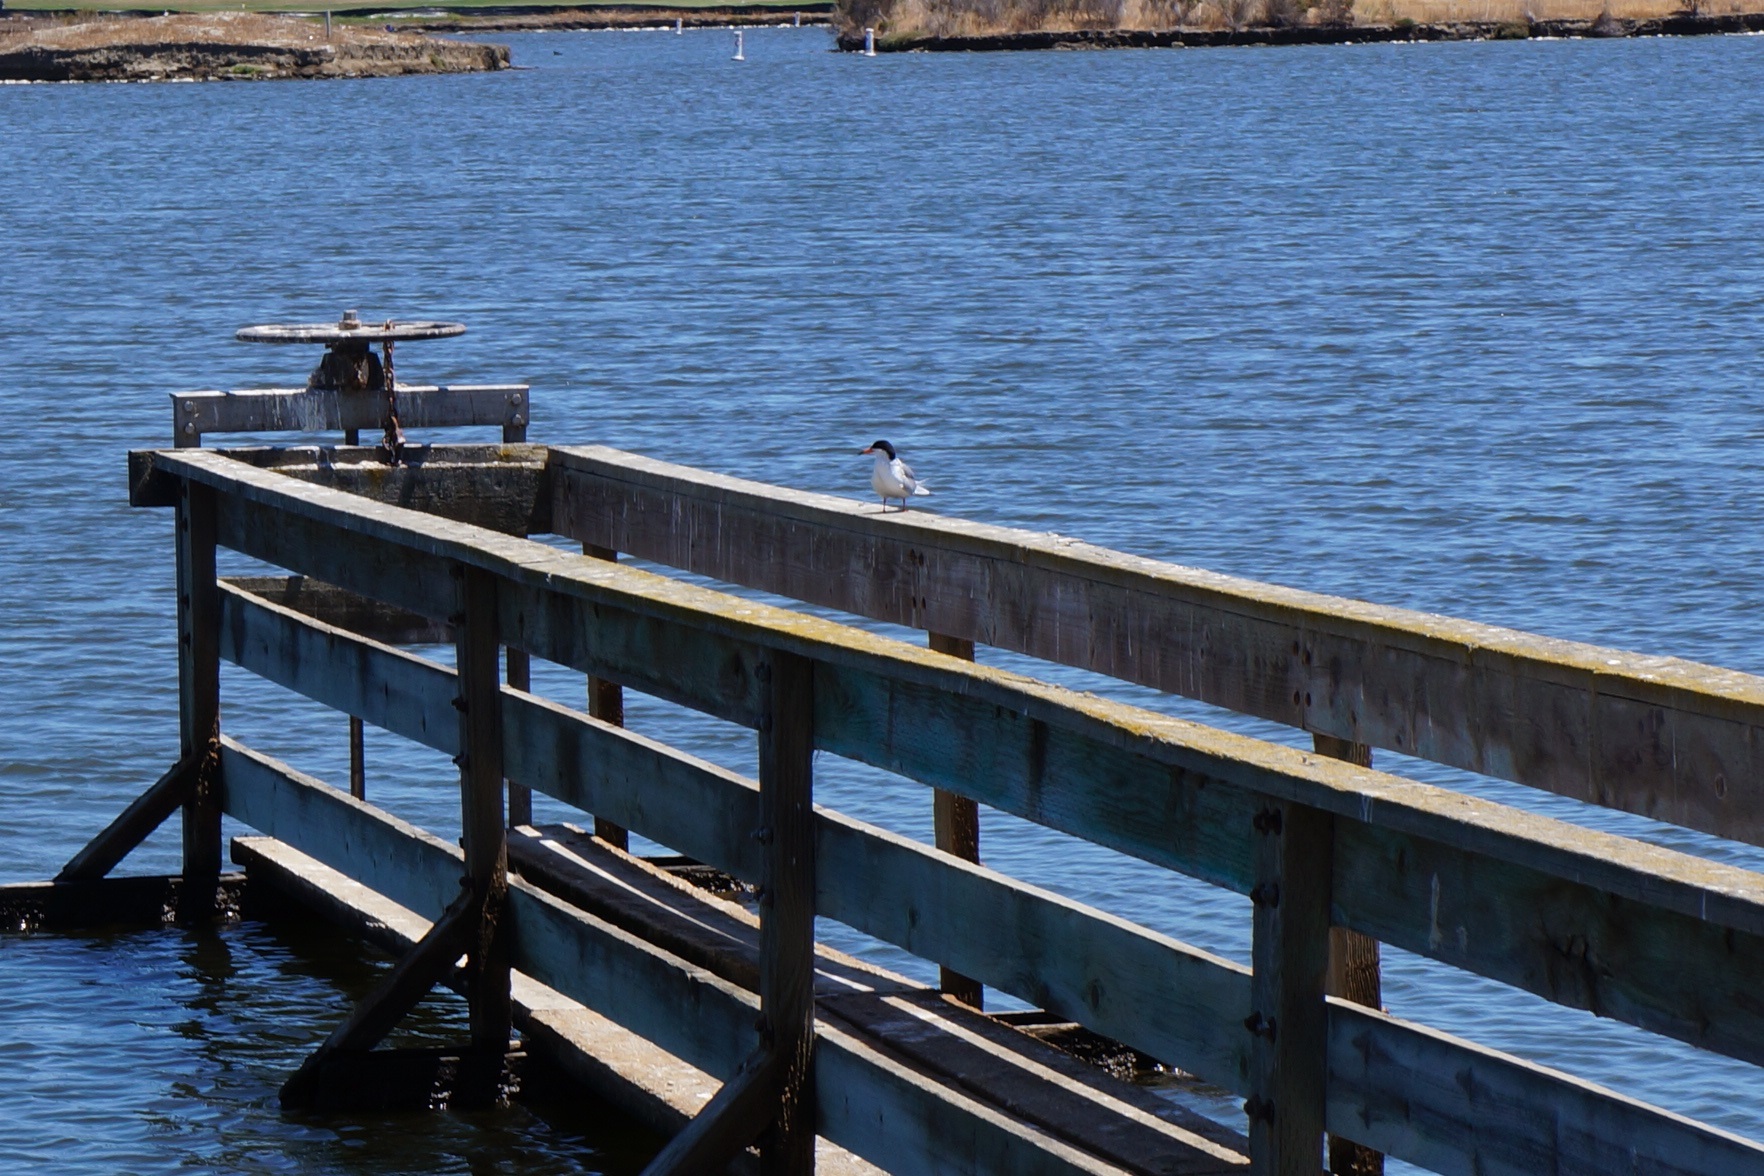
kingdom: Animalia
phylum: Chordata
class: Aves
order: Charadriiformes
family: Laridae
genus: Sterna
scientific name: Sterna forsteri
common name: Forster's tern
